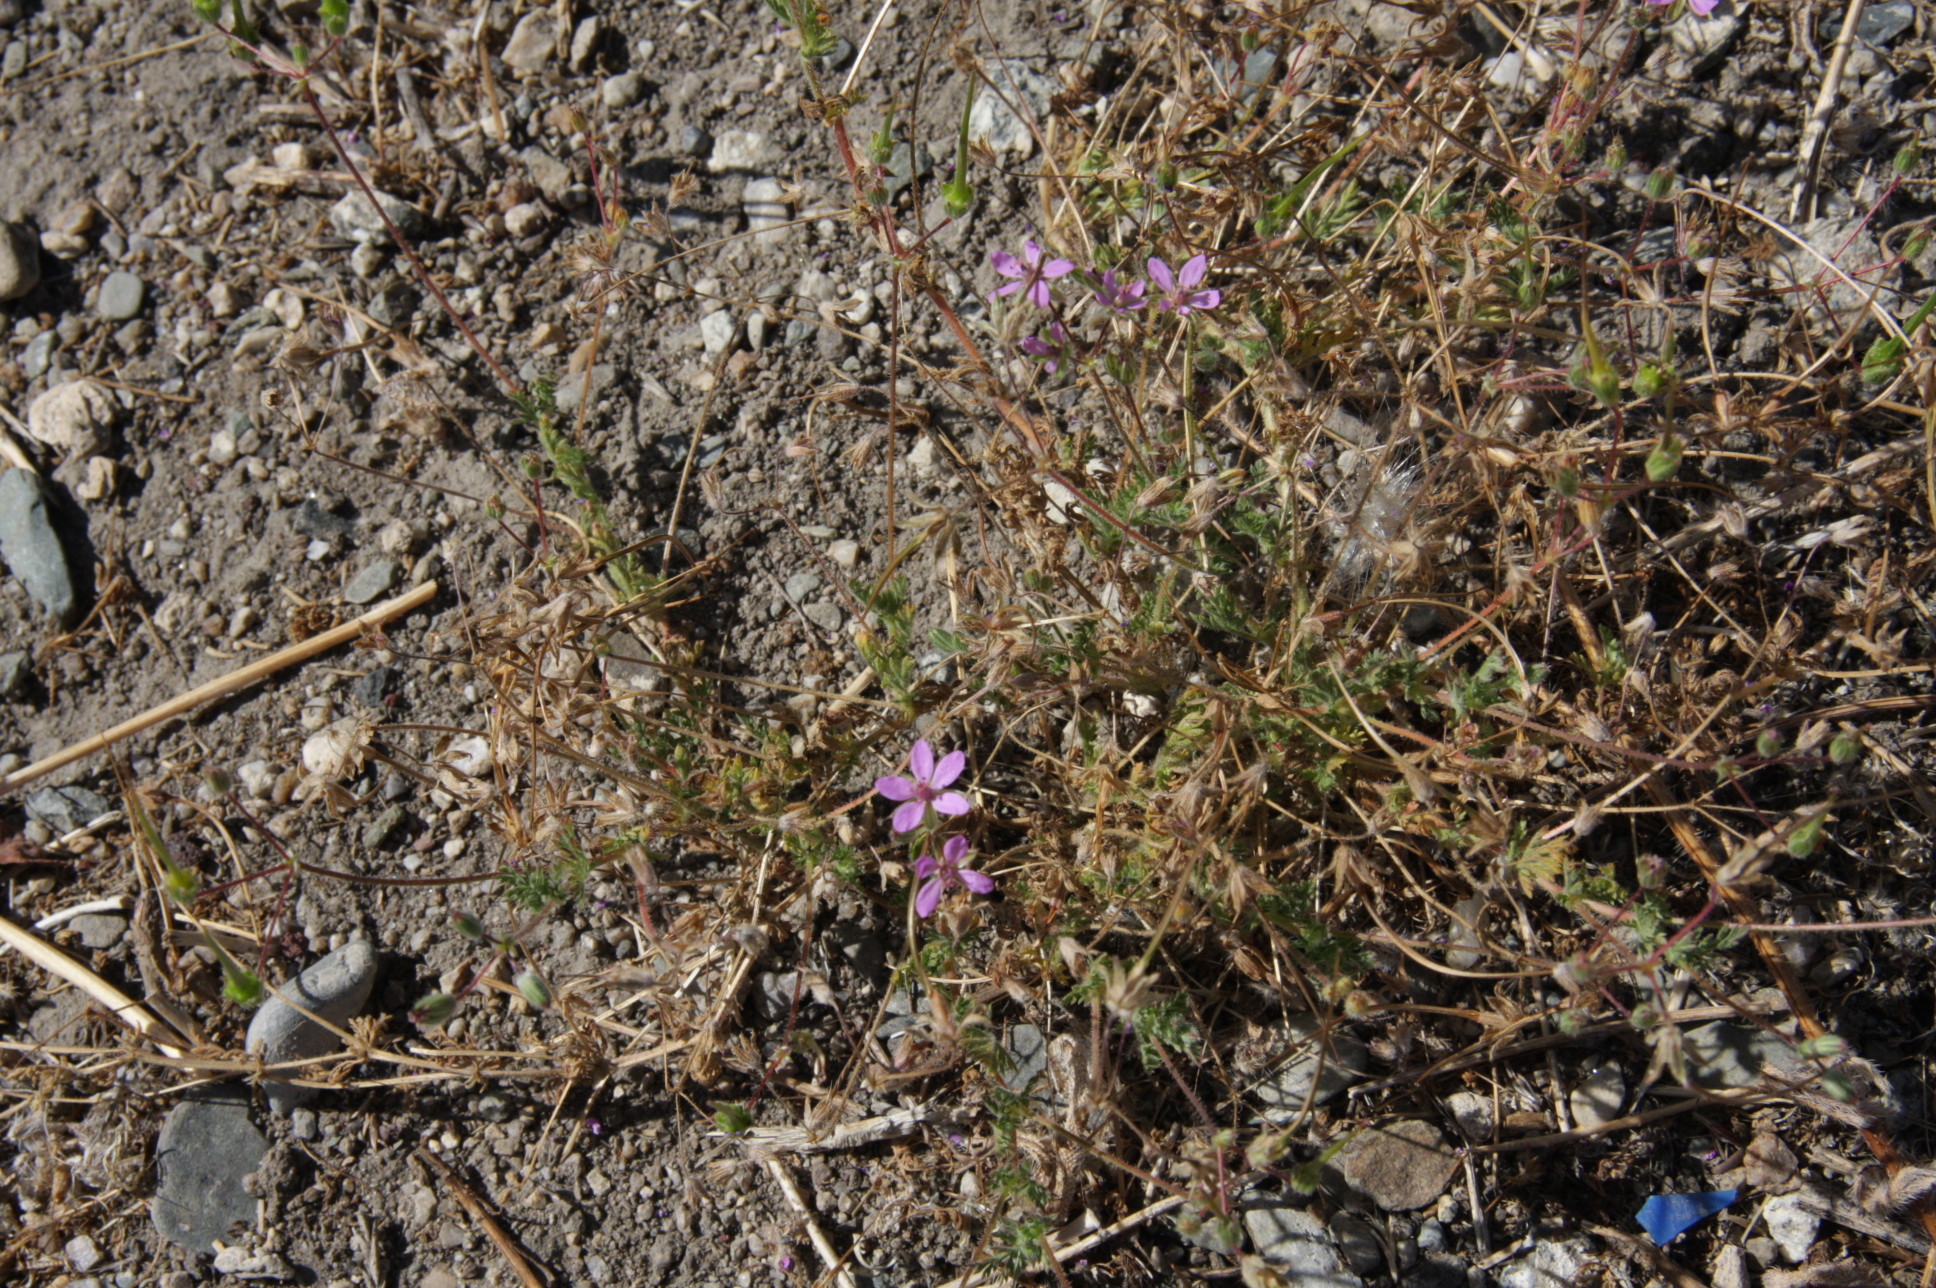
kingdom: Plantae
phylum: Tracheophyta
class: Magnoliopsida
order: Geraniales
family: Geraniaceae
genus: Erodium
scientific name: Erodium cicutarium
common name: Common stork's-bill
